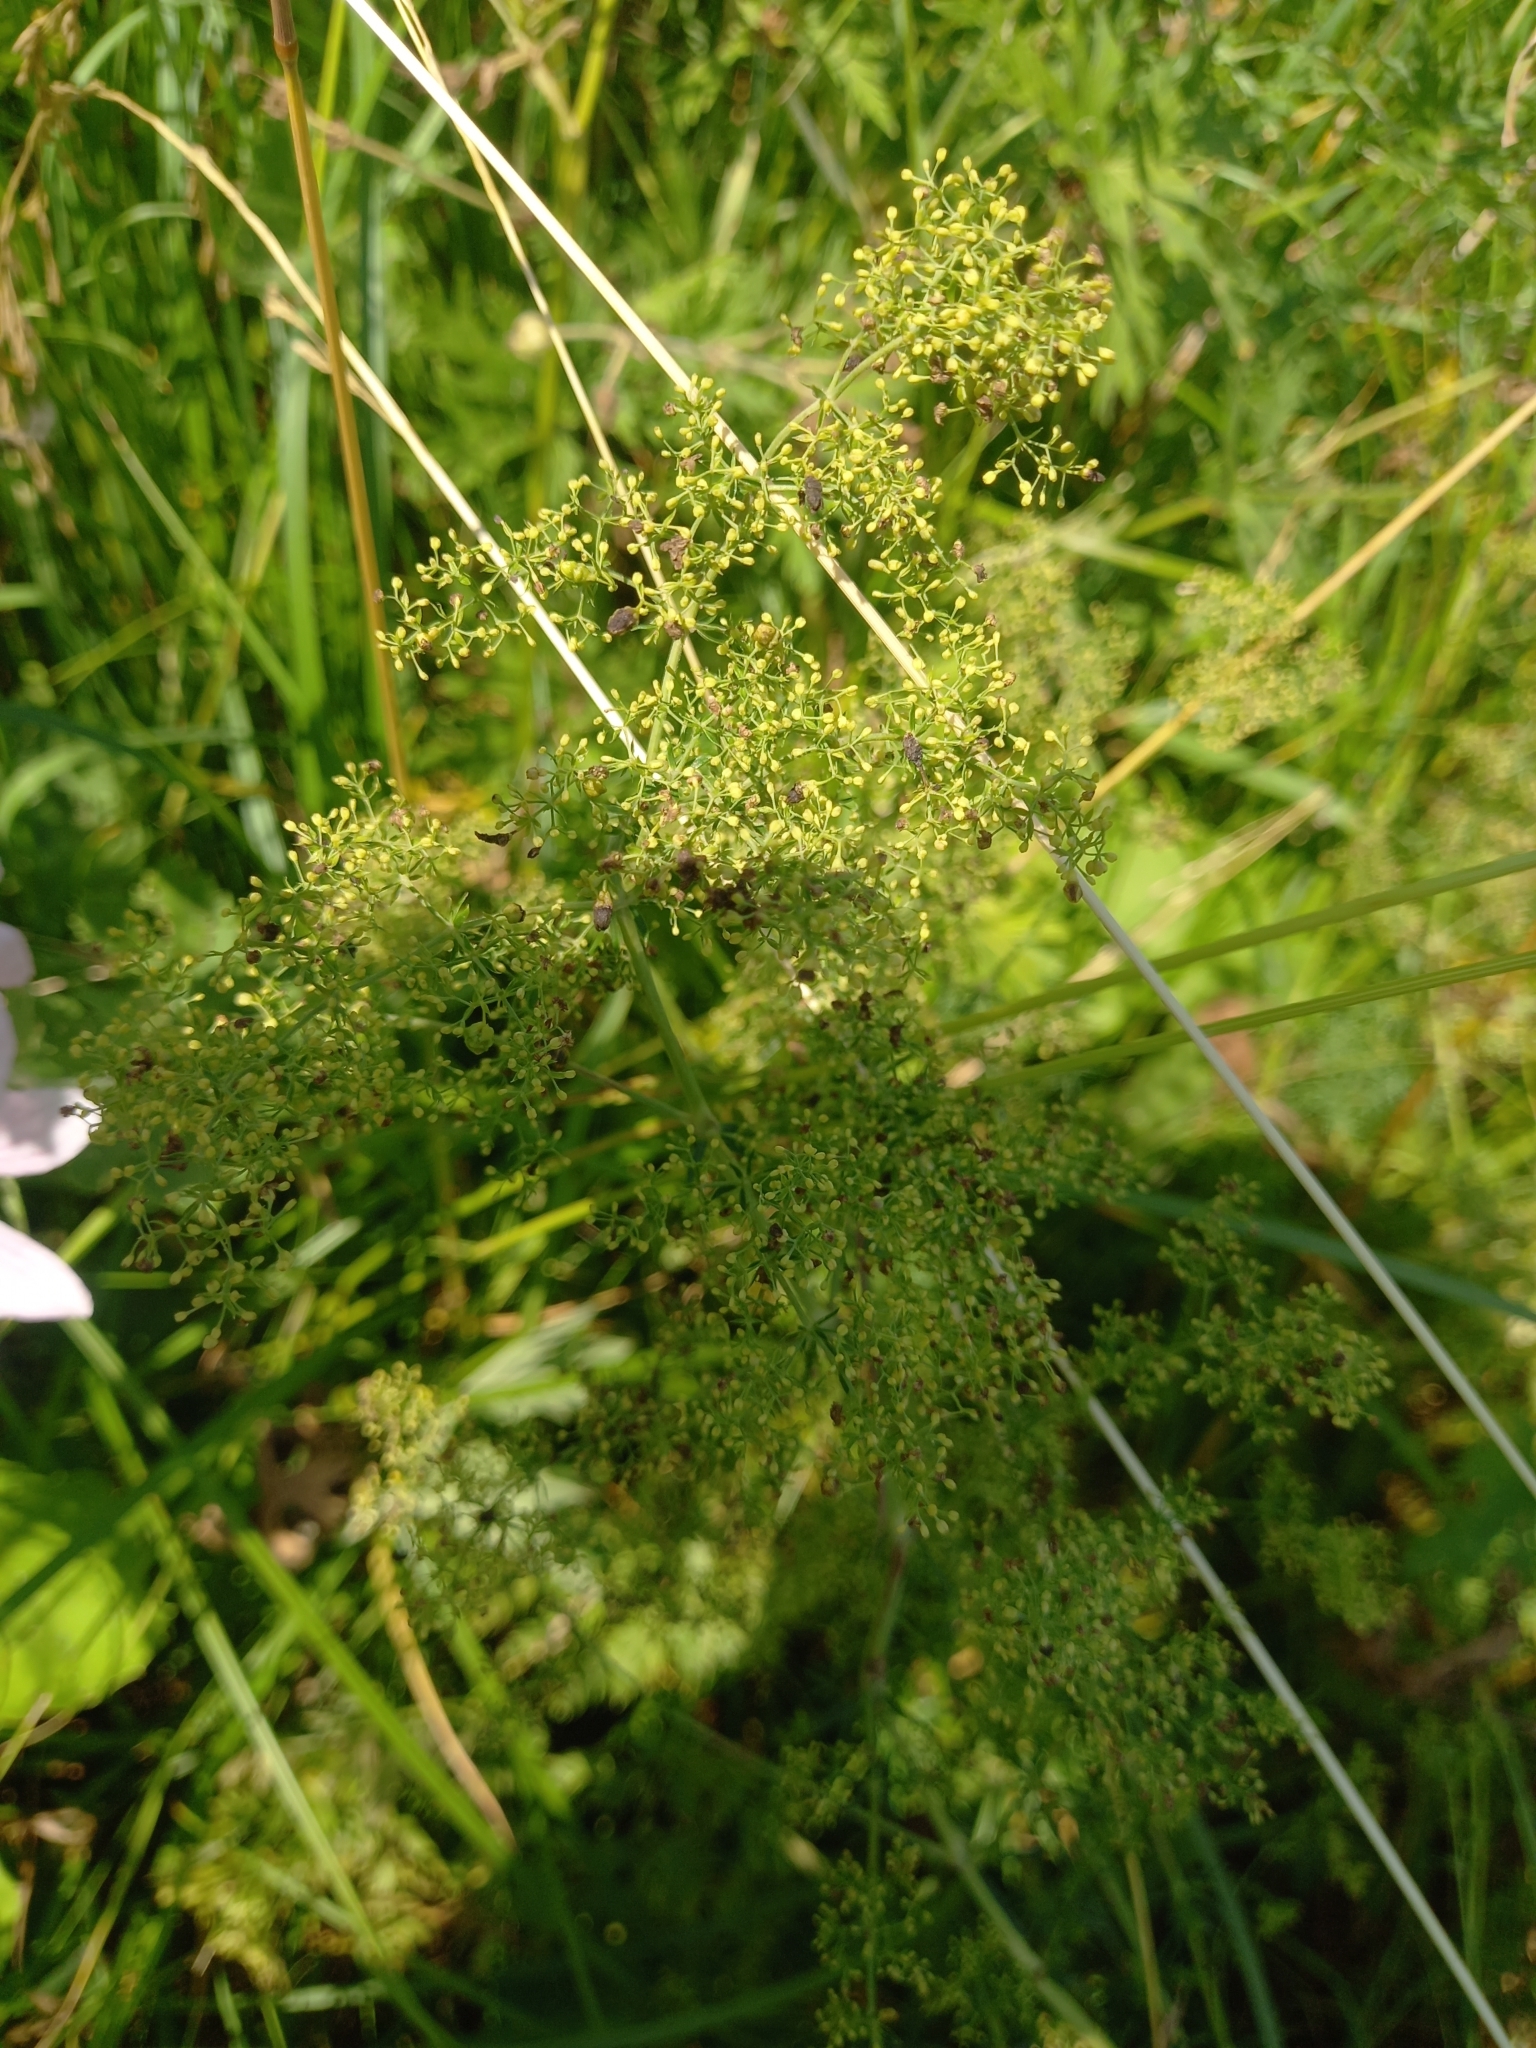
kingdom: Plantae
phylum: Tracheophyta
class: Magnoliopsida
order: Gentianales
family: Rubiaceae
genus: Galium
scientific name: Galium verum
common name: Lady's bedstraw
